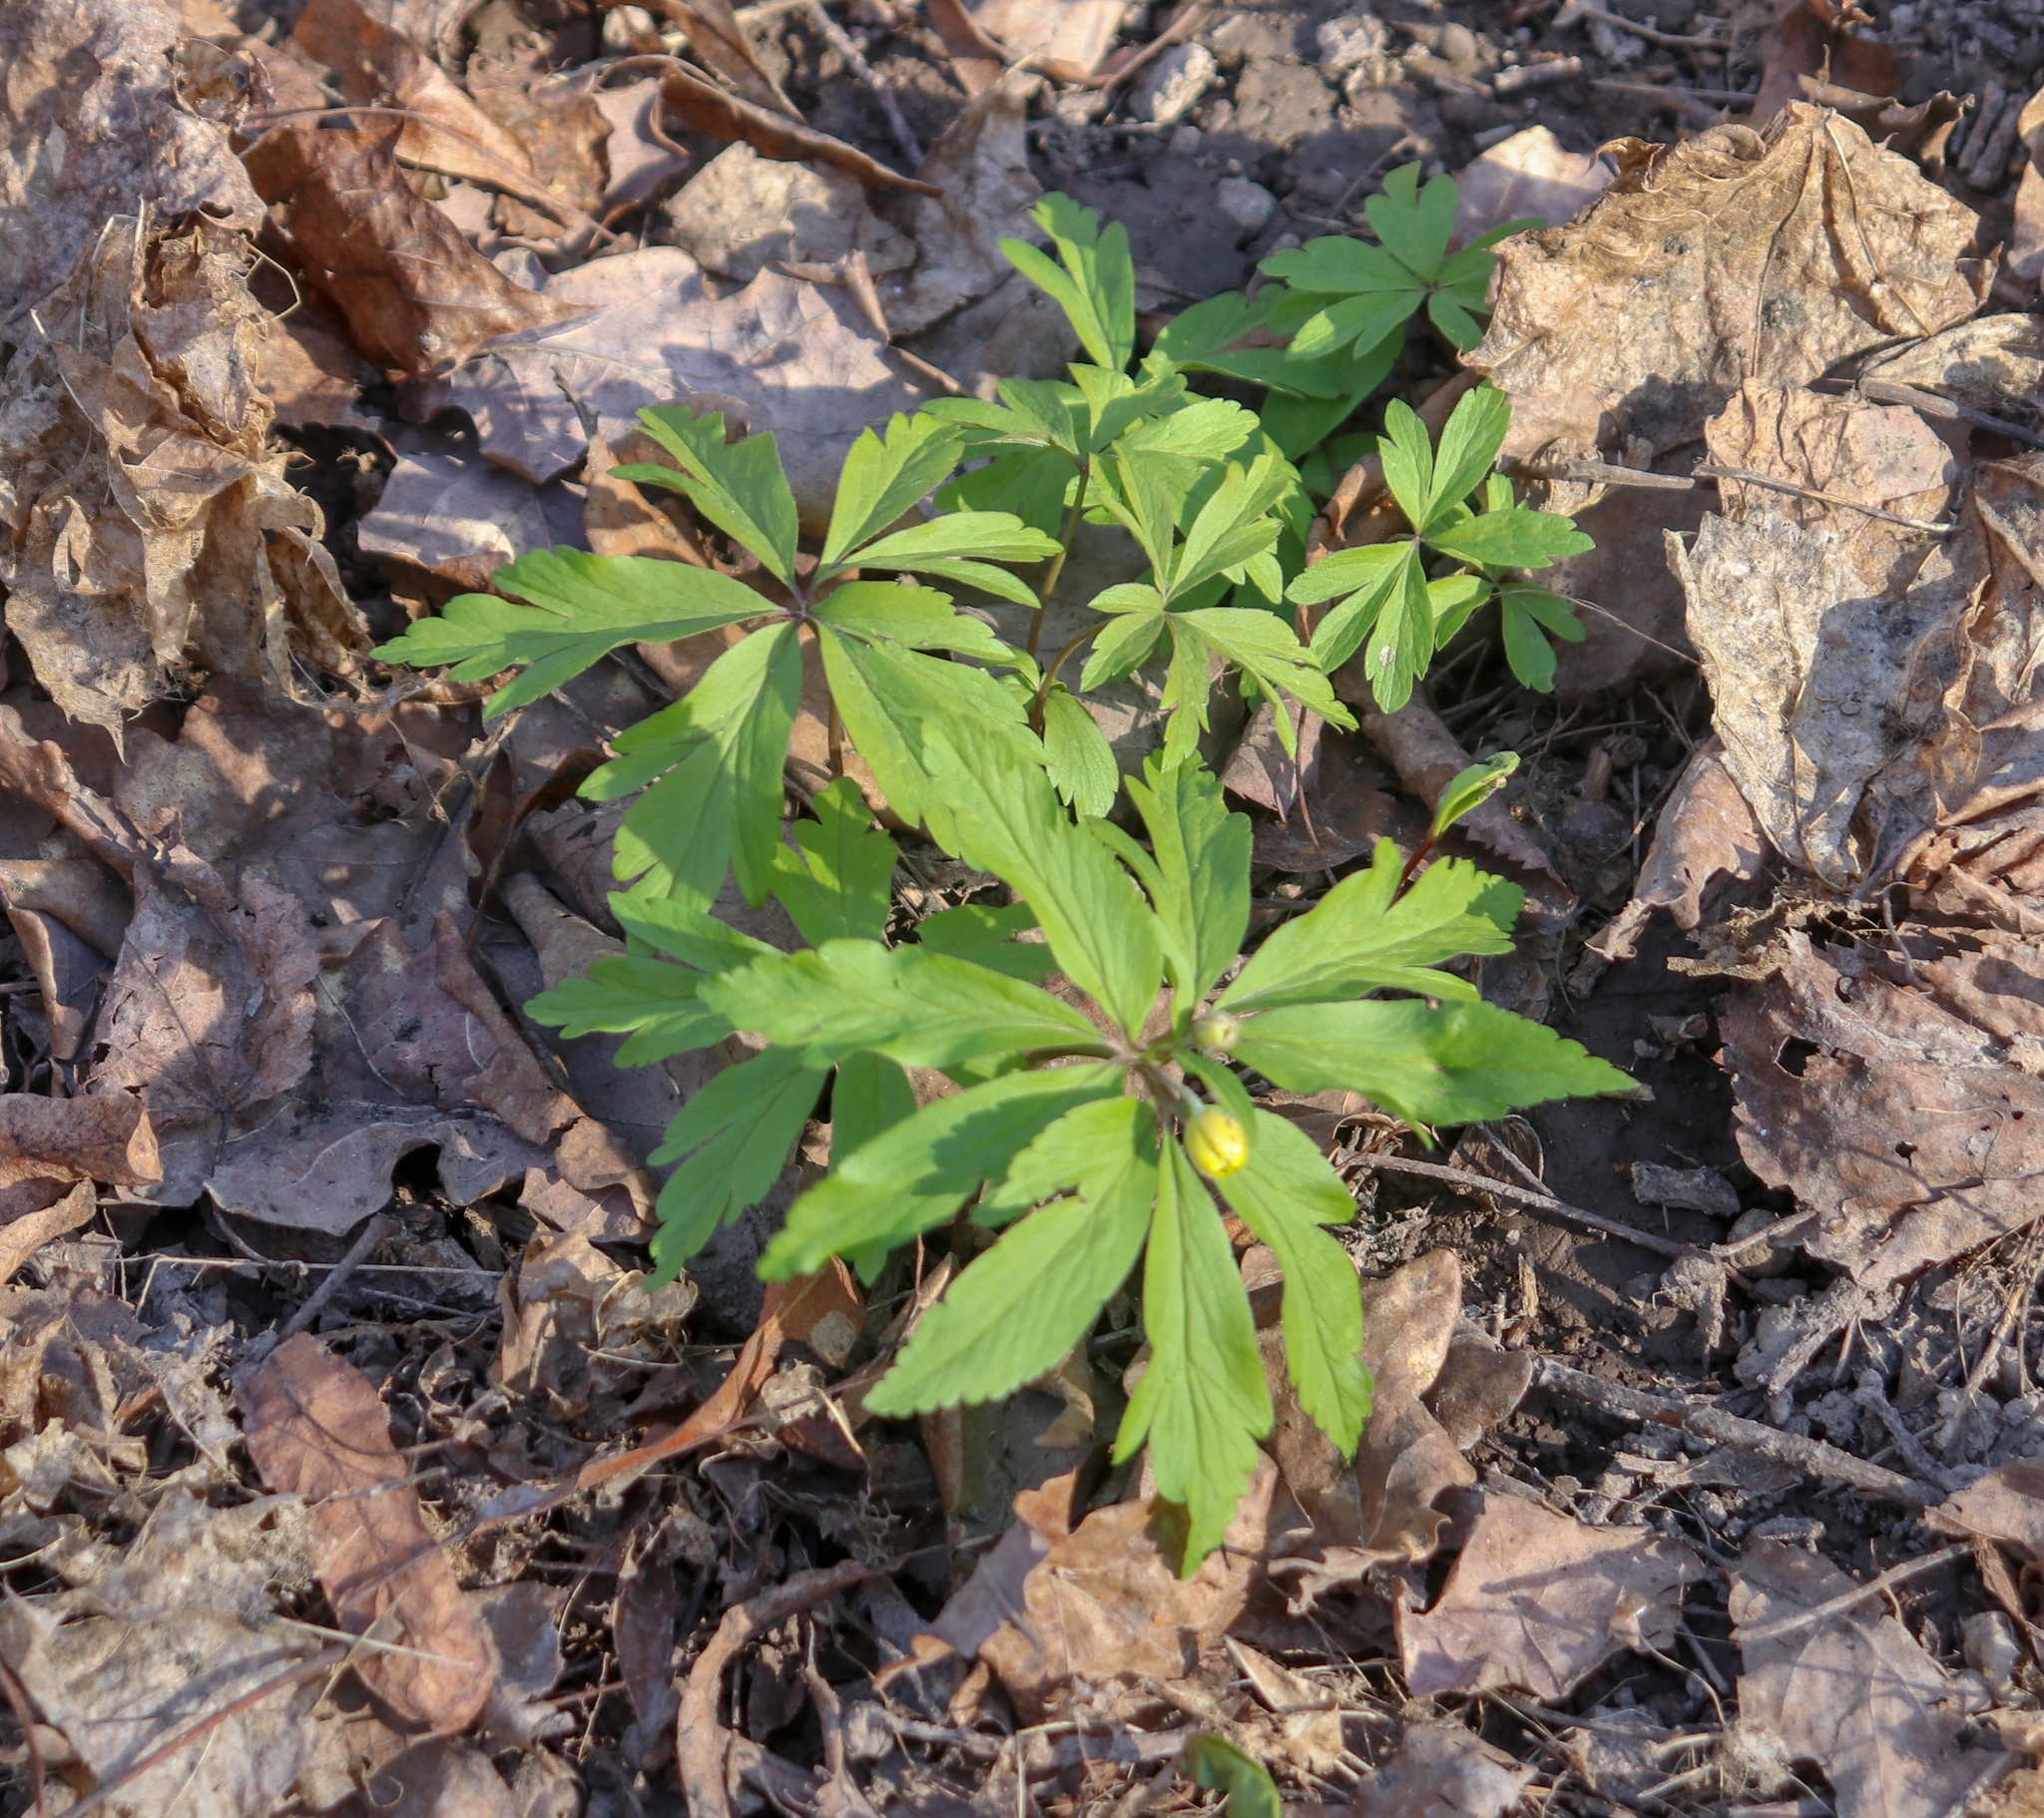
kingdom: Plantae
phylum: Tracheophyta
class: Magnoliopsida
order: Ranunculales
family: Ranunculaceae
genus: Anemone
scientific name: Anemone ranunculoides
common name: Yellow anemone
